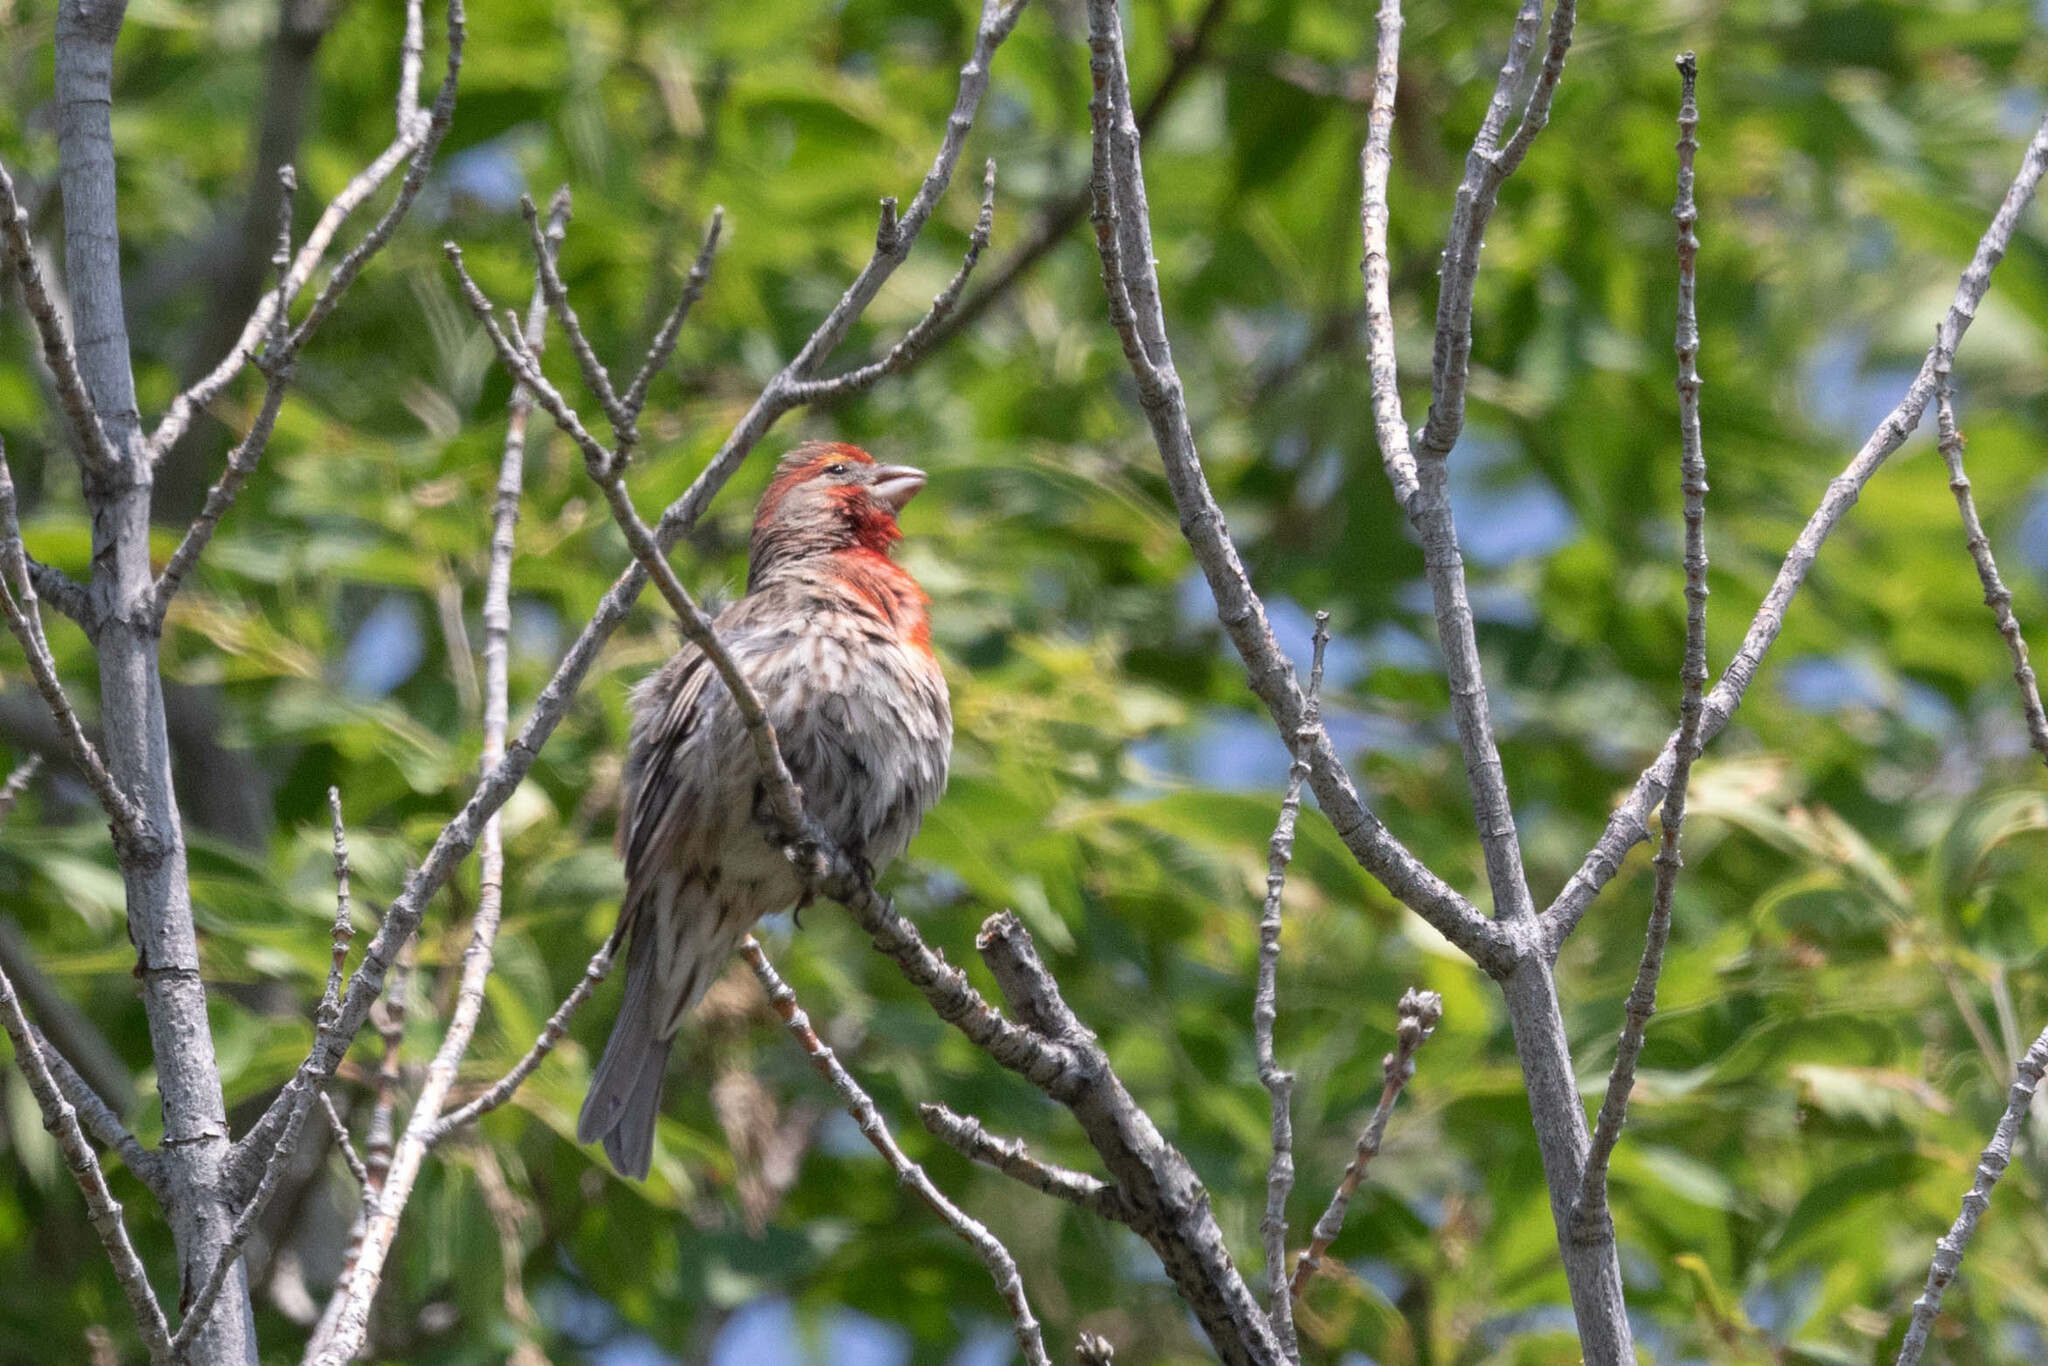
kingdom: Animalia
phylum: Chordata
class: Aves
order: Passeriformes
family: Fringillidae
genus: Haemorhous
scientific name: Haemorhous mexicanus
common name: House finch
